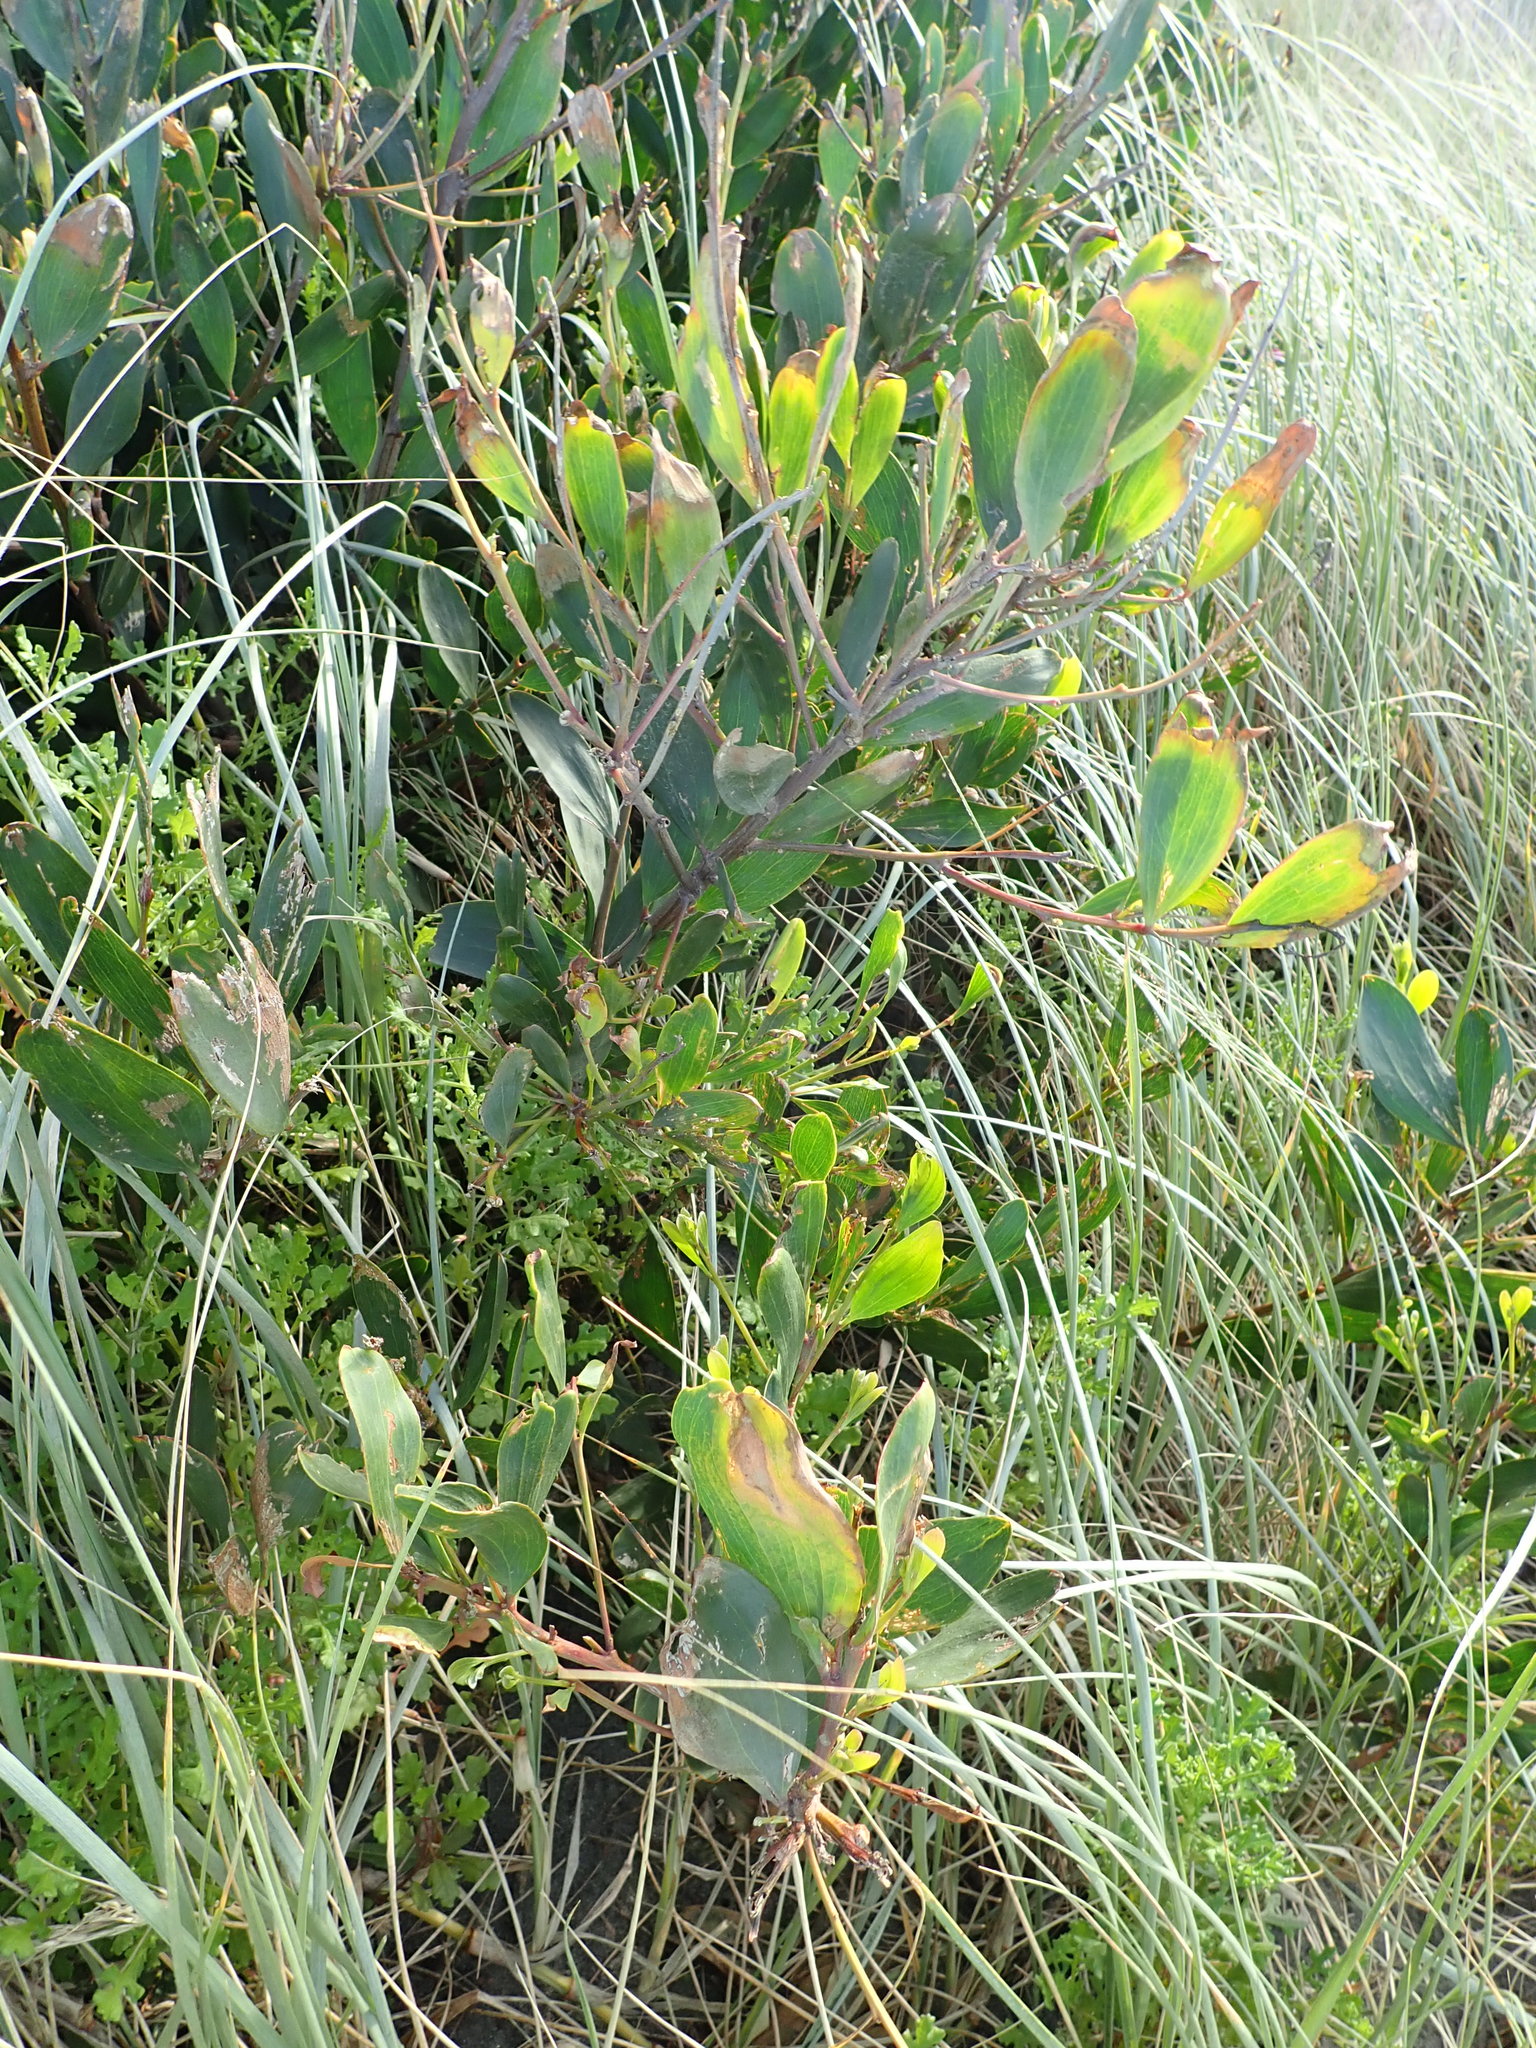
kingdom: Plantae
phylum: Tracheophyta
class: Magnoliopsida
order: Fabales
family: Fabaceae
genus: Acacia
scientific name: Acacia longifolia
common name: Sydney golden wattle
